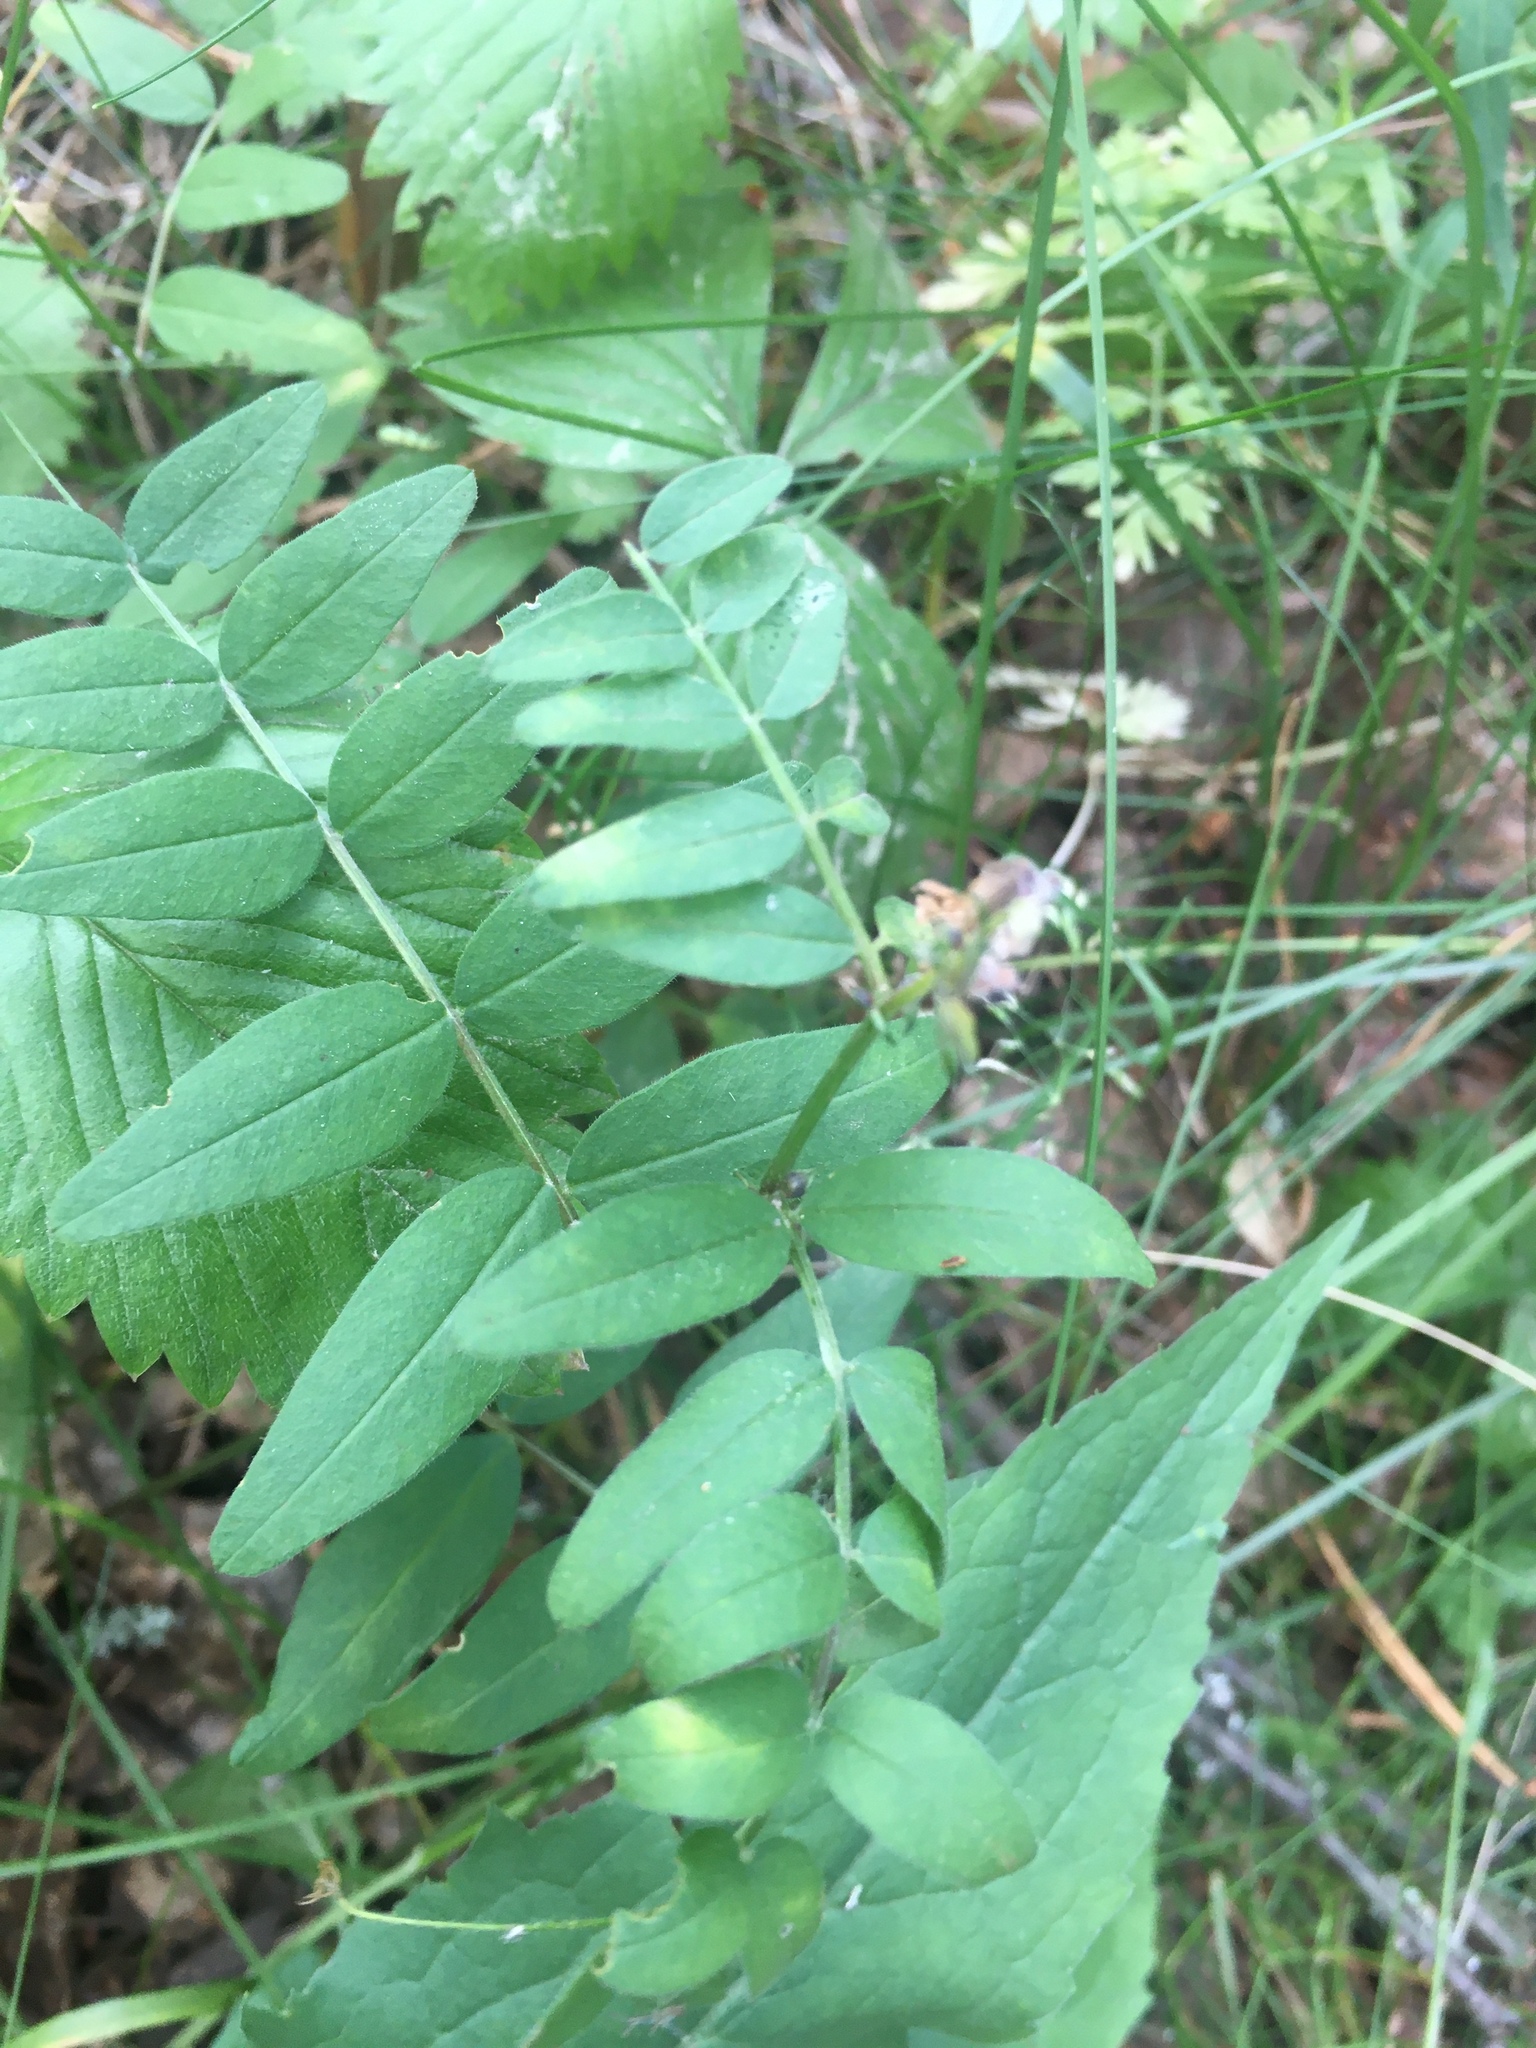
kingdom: Plantae
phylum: Tracheophyta
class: Magnoliopsida
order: Fabales
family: Fabaceae
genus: Vicia
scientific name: Vicia sepium
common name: Bush vetch
